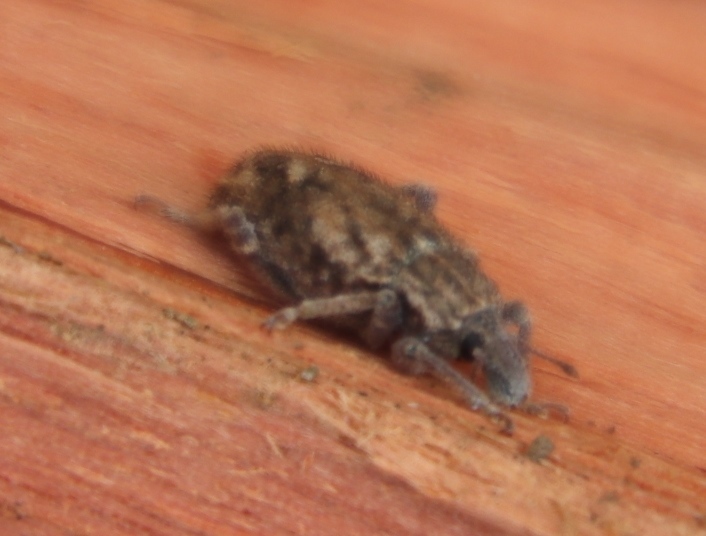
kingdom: Animalia
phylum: Arthropoda
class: Insecta
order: Coleoptera
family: Curculionidae
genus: Listroderes
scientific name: Listroderes costirostris
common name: Weevil
